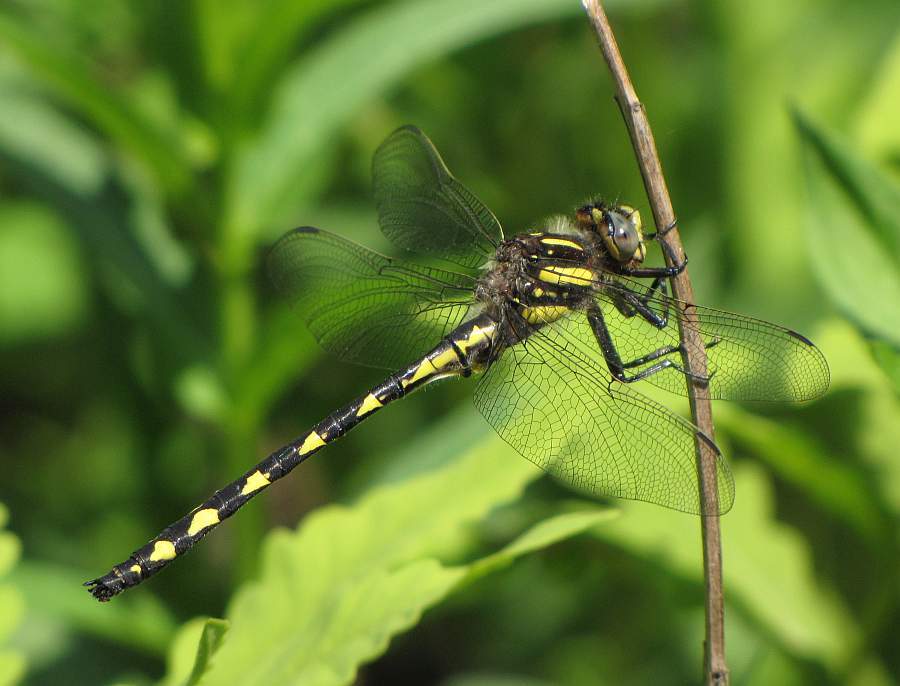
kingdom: Animalia
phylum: Arthropoda
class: Insecta
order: Odonata
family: Cordulegastridae
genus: Cordulegaster
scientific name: Cordulegaster diastatops
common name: Delta-spotted spiketail
